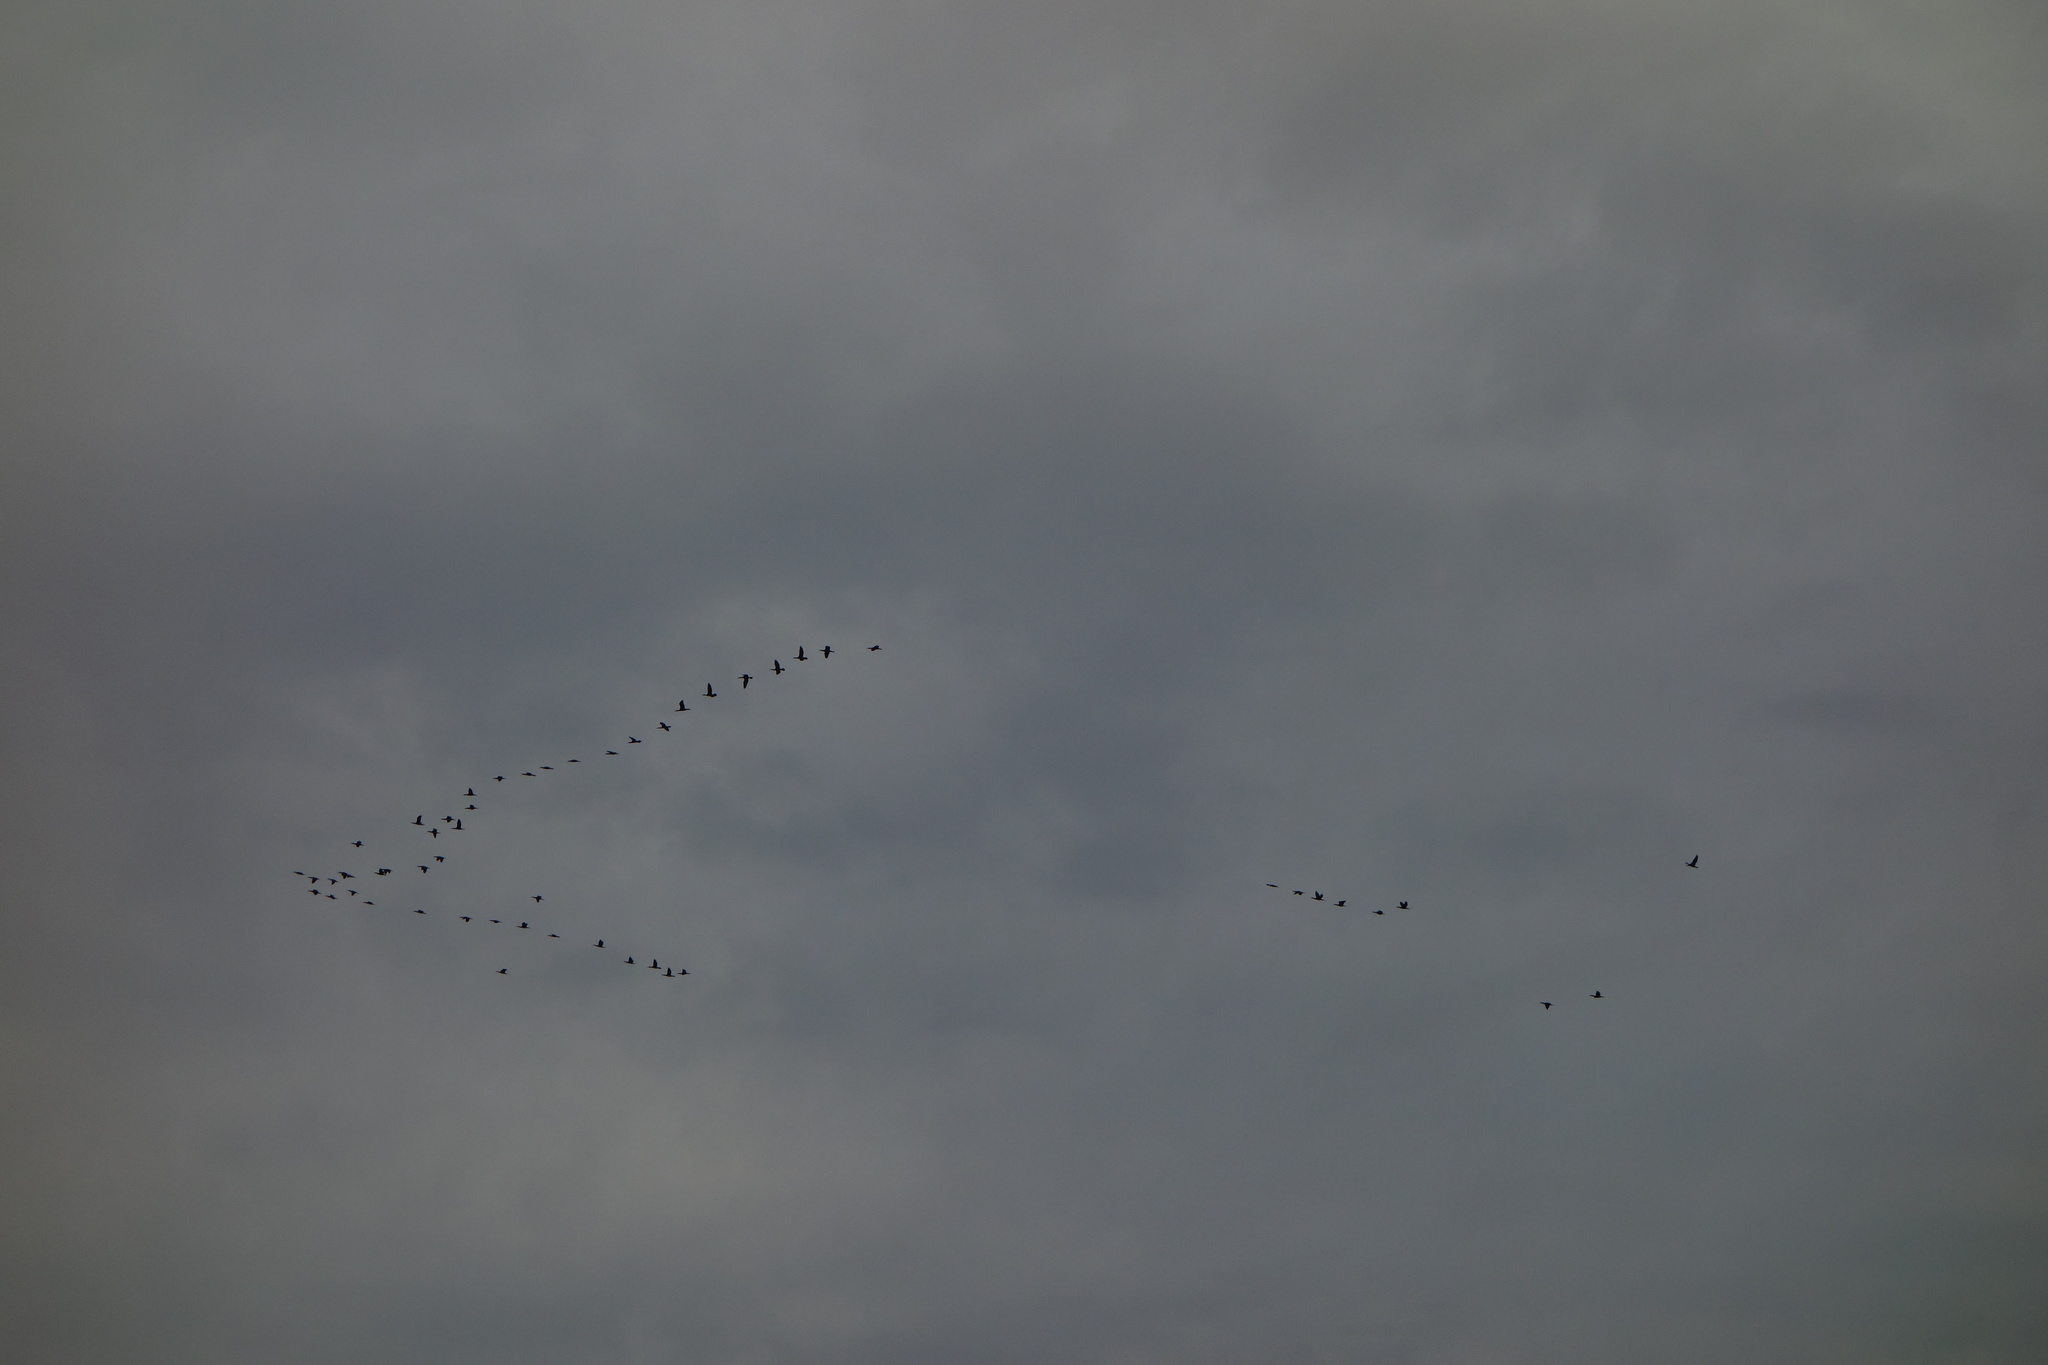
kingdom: Animalia
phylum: Chordata
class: Aves
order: Suliformes
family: Phalacrocoracidae
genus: Phalacrocorax
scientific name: Phalacrocorax carbo
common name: Great cormorant
